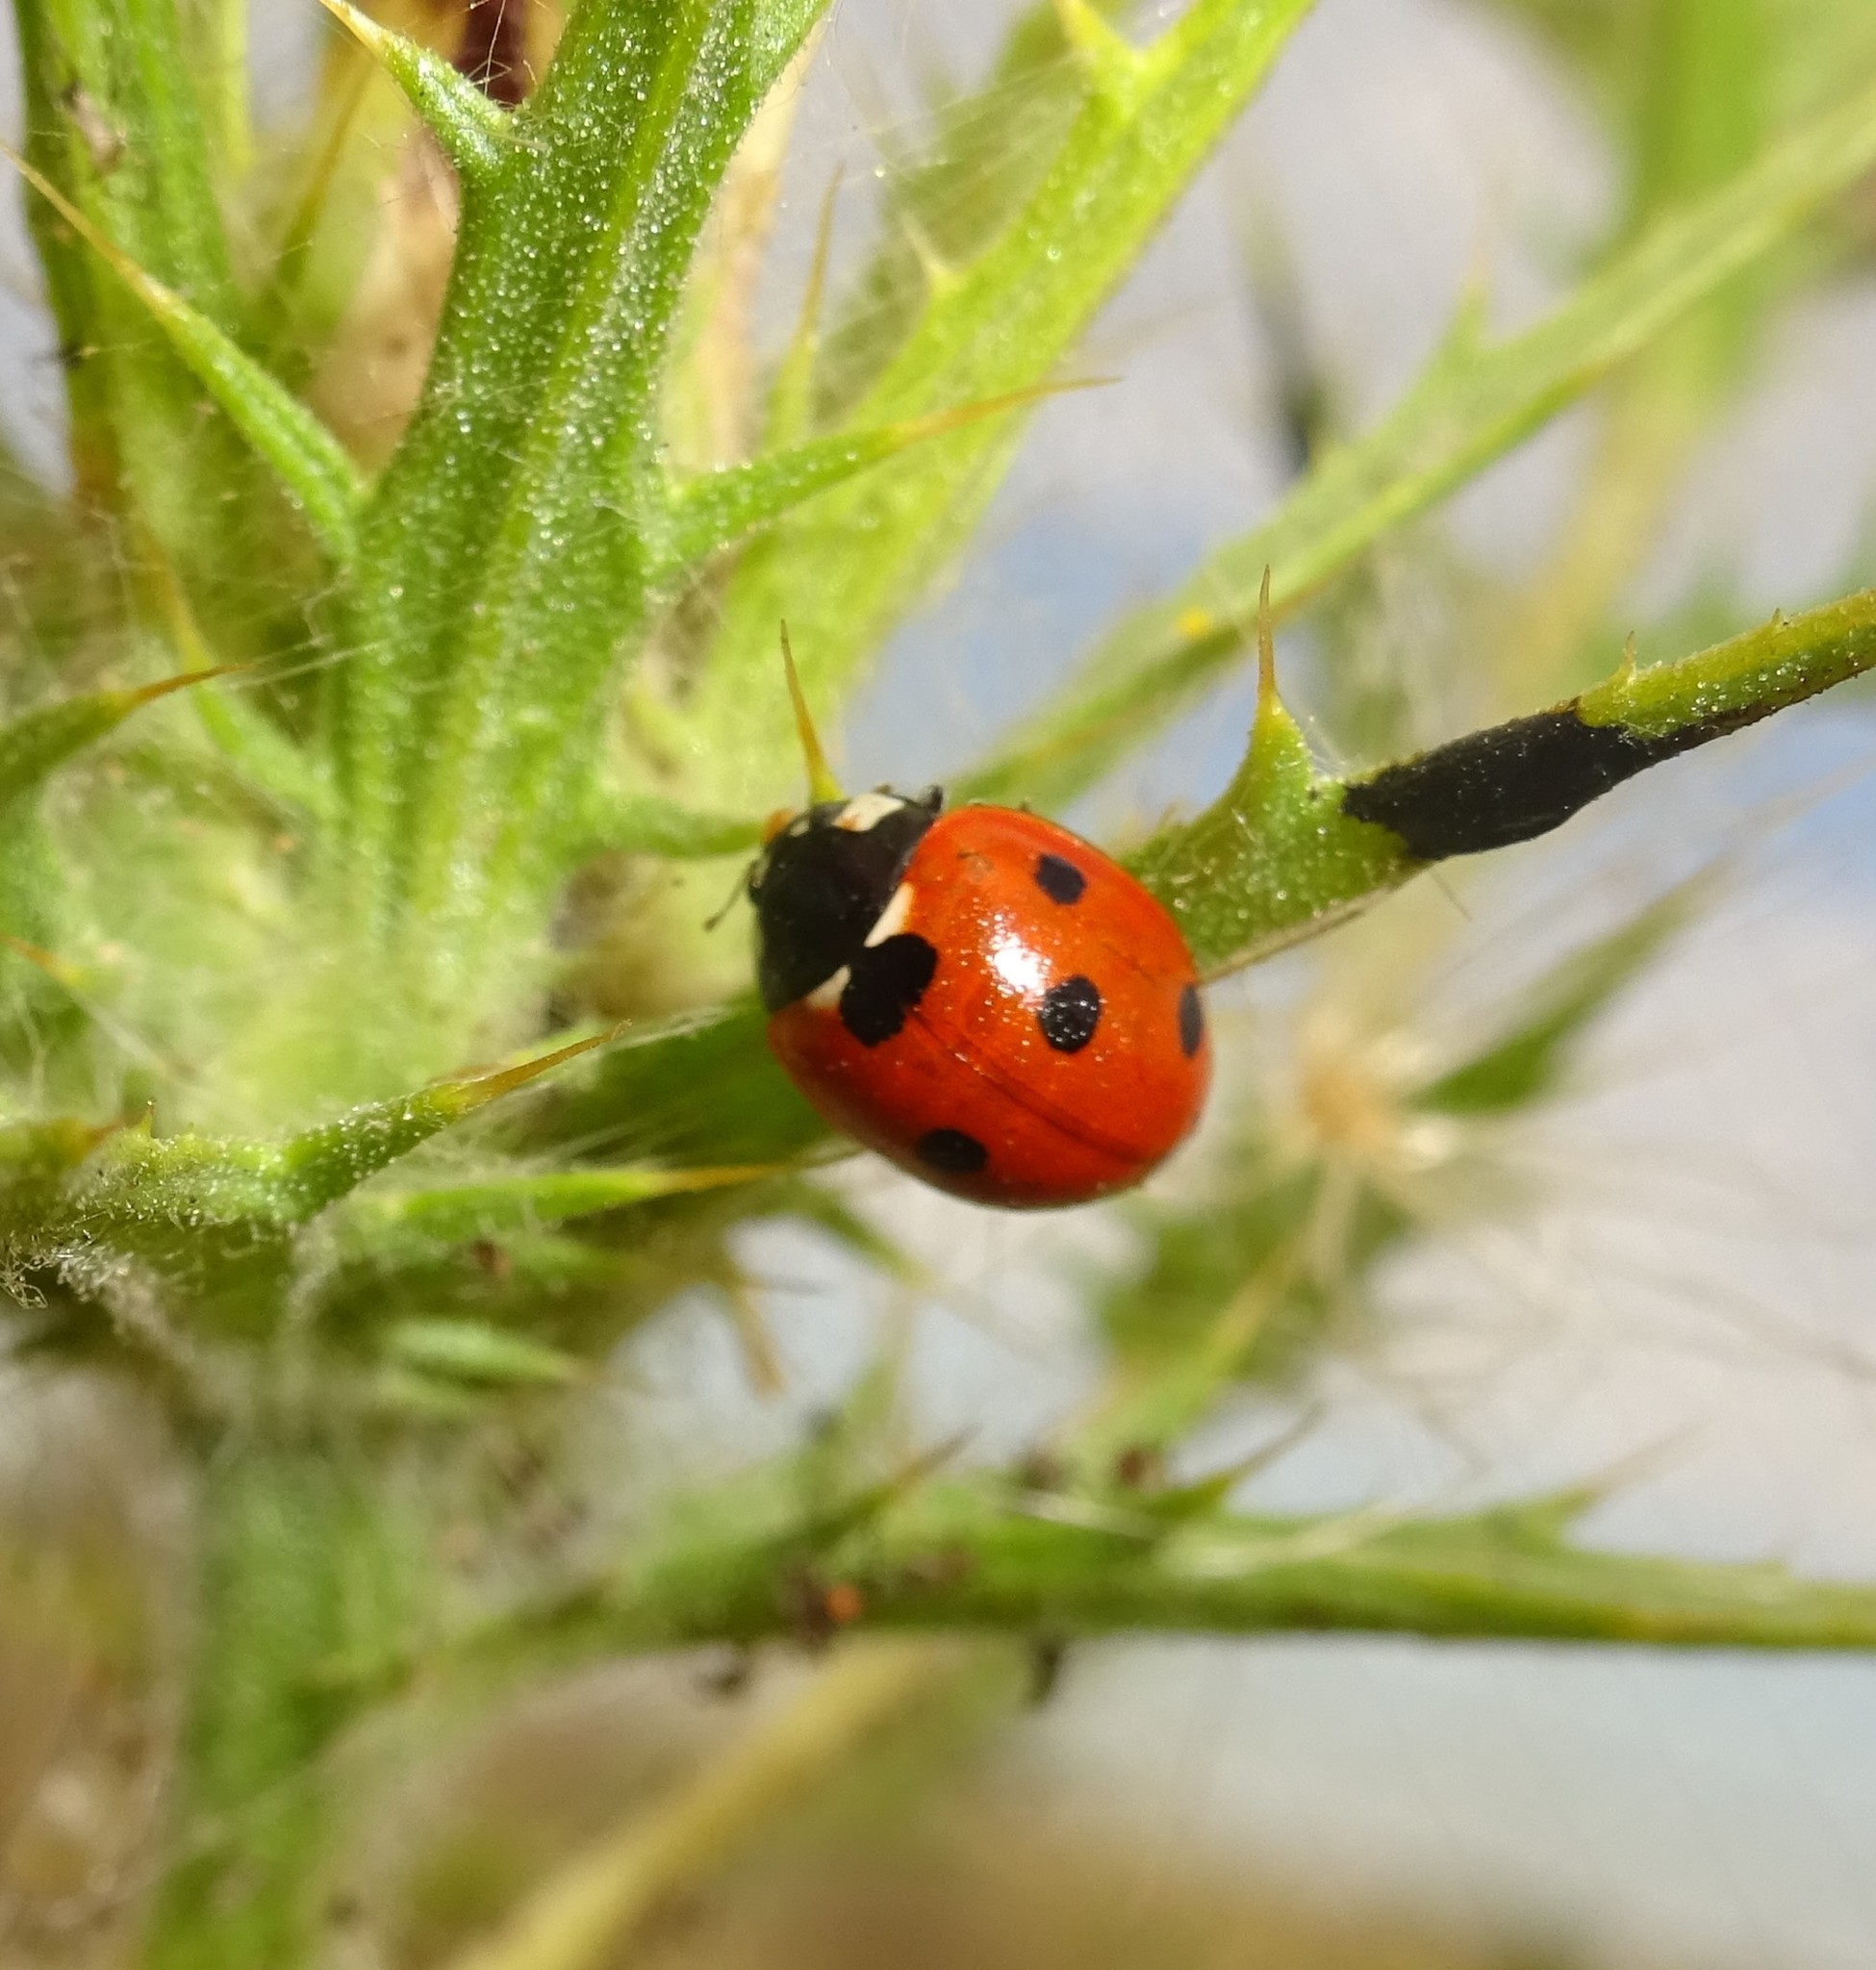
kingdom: Animalia
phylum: Arthropoda
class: Insecta
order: Coleoptera
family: Coccinellidae
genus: Coccinella
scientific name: Coccinella septempunctata
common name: Sevenspotted lady beetle
